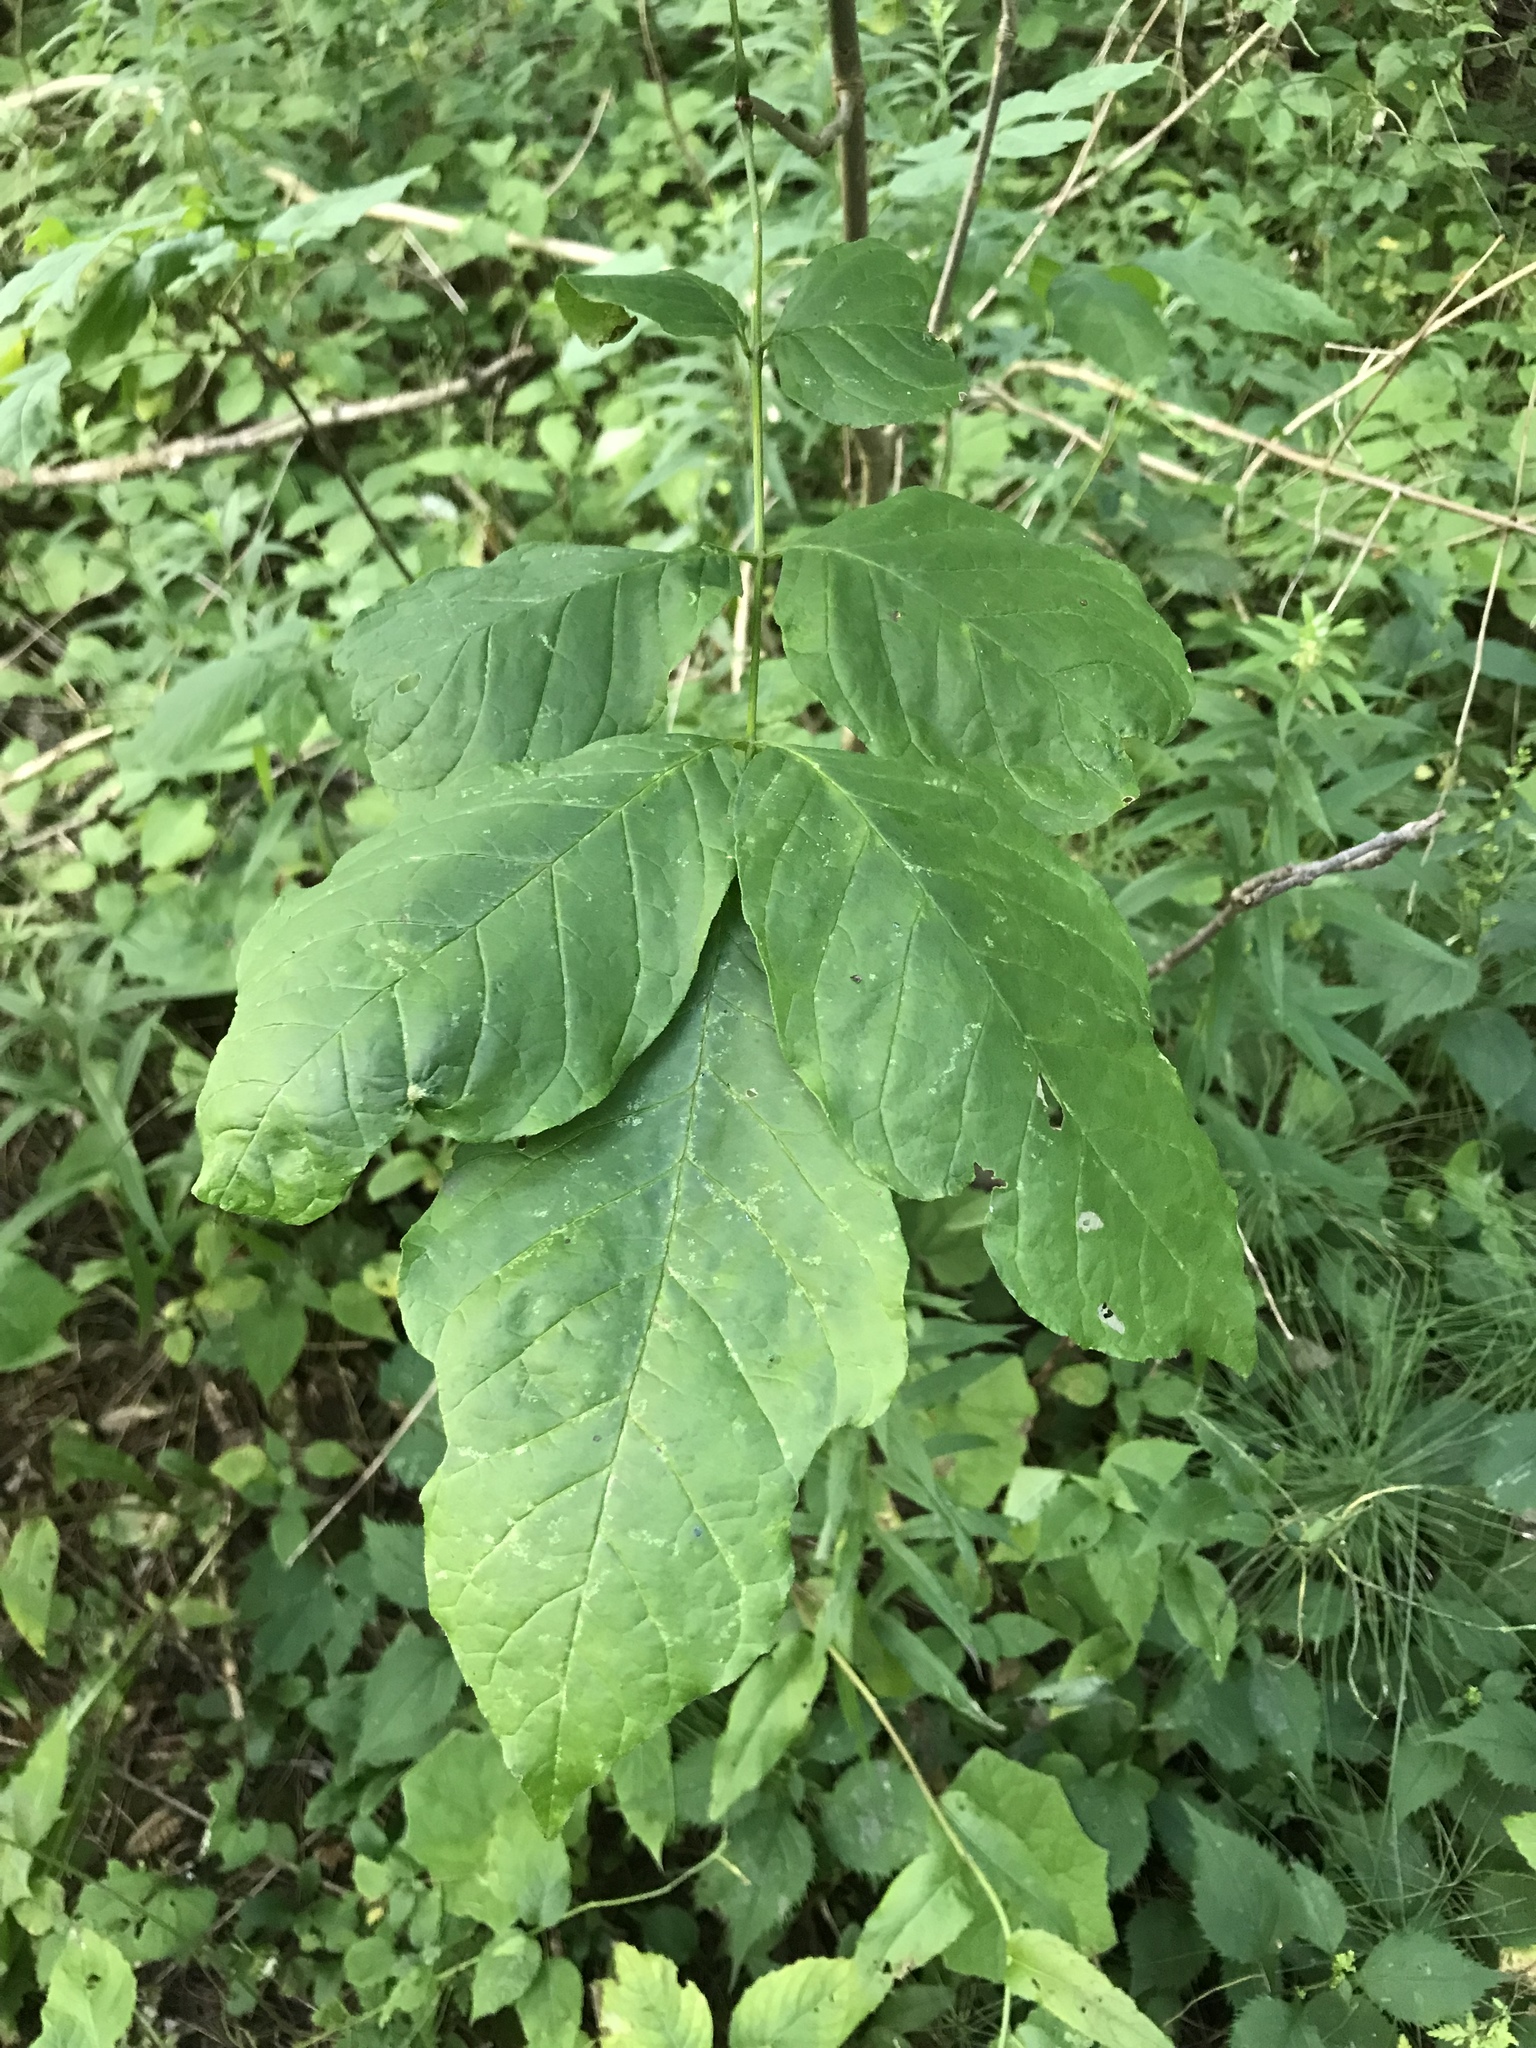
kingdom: Plantae
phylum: Tracheophyta
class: Magnoliopsida
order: Lamiales
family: Oleaceae
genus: Fraxinus
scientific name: Fraxinus americana
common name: White ash
